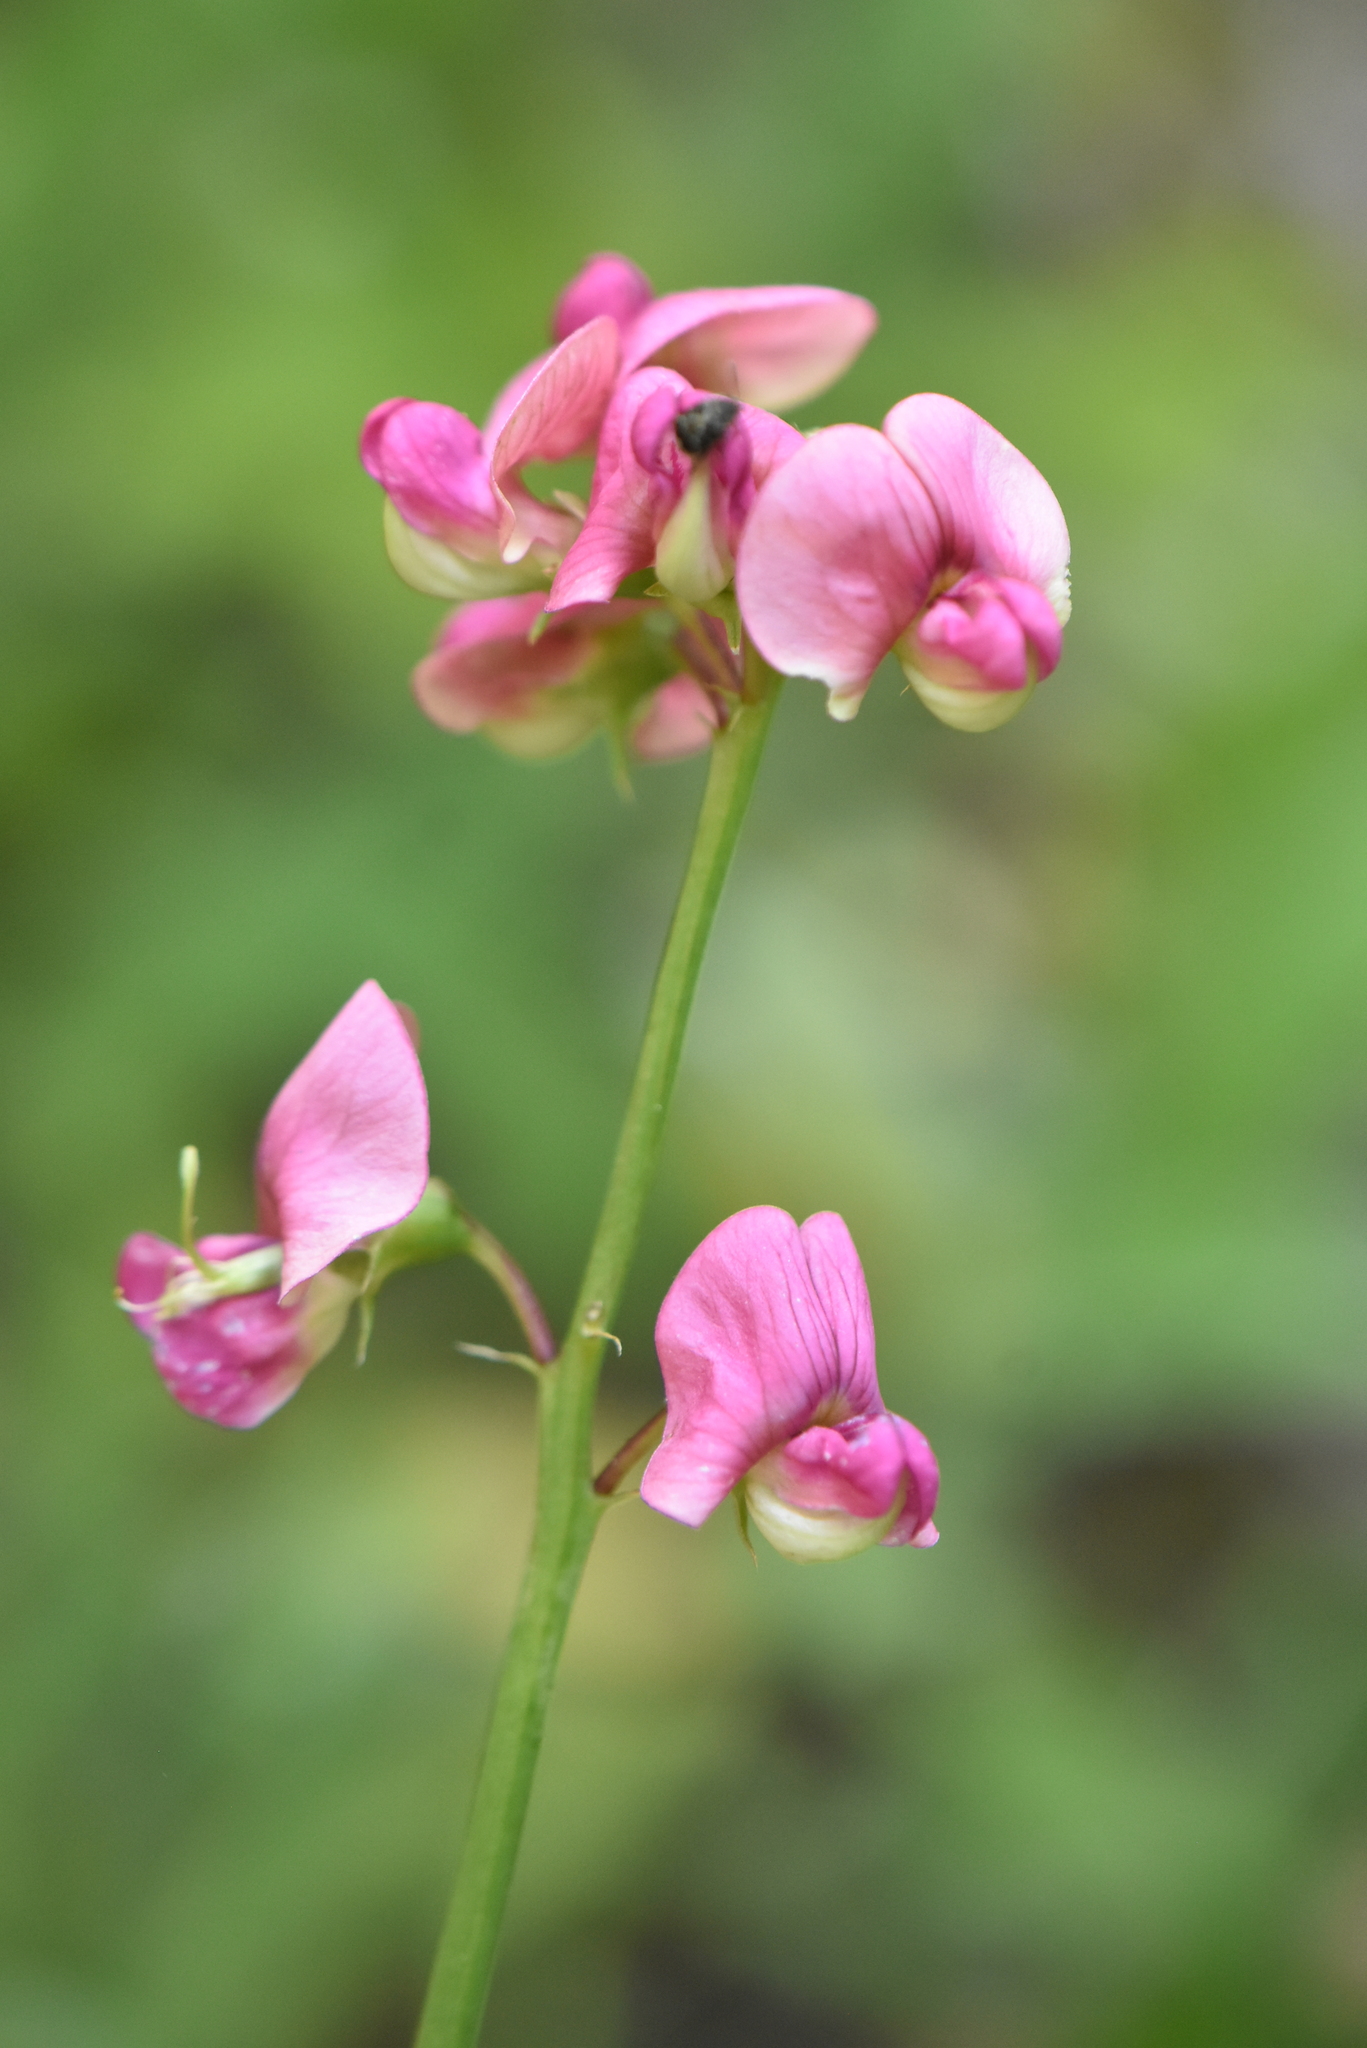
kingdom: Plantae
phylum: Tracheophyta
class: Magnoliopsida
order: Fabales
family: Fabaceae
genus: Lathyrus
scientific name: Lathyrus sylvestris
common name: Flat pea
